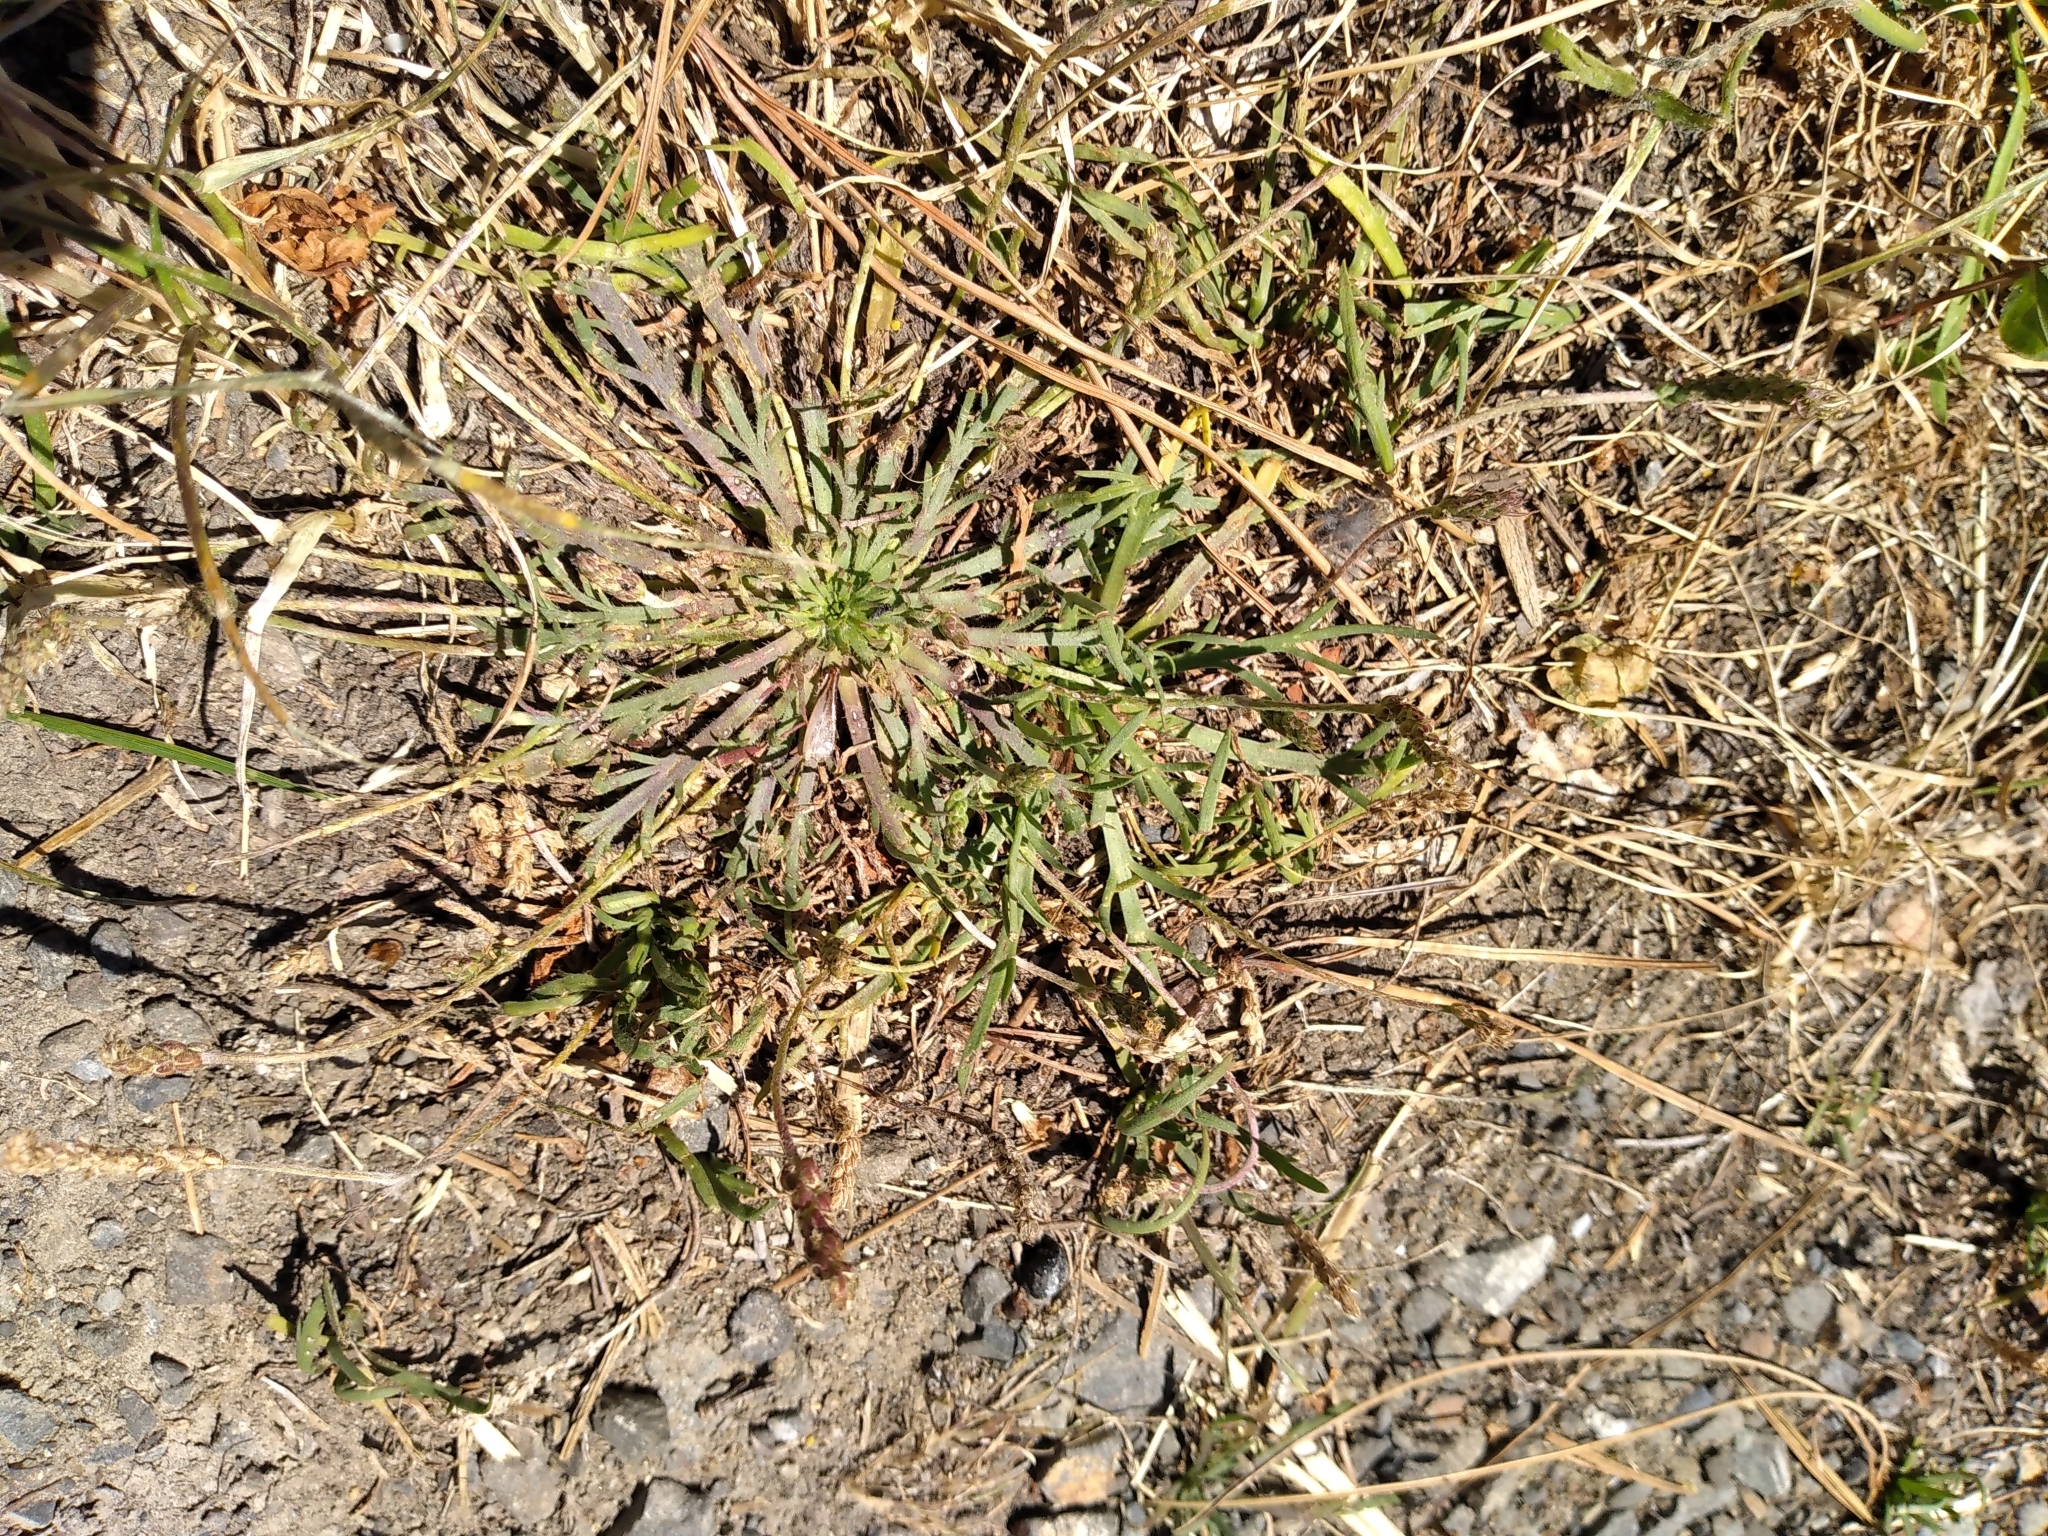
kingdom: Plantae
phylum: Tracheophyta
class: Magnoliopsida
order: Lamiales
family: Plantaginaceae
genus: Plantago
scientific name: Plantago coronopus
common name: Buck's-horn plantain
